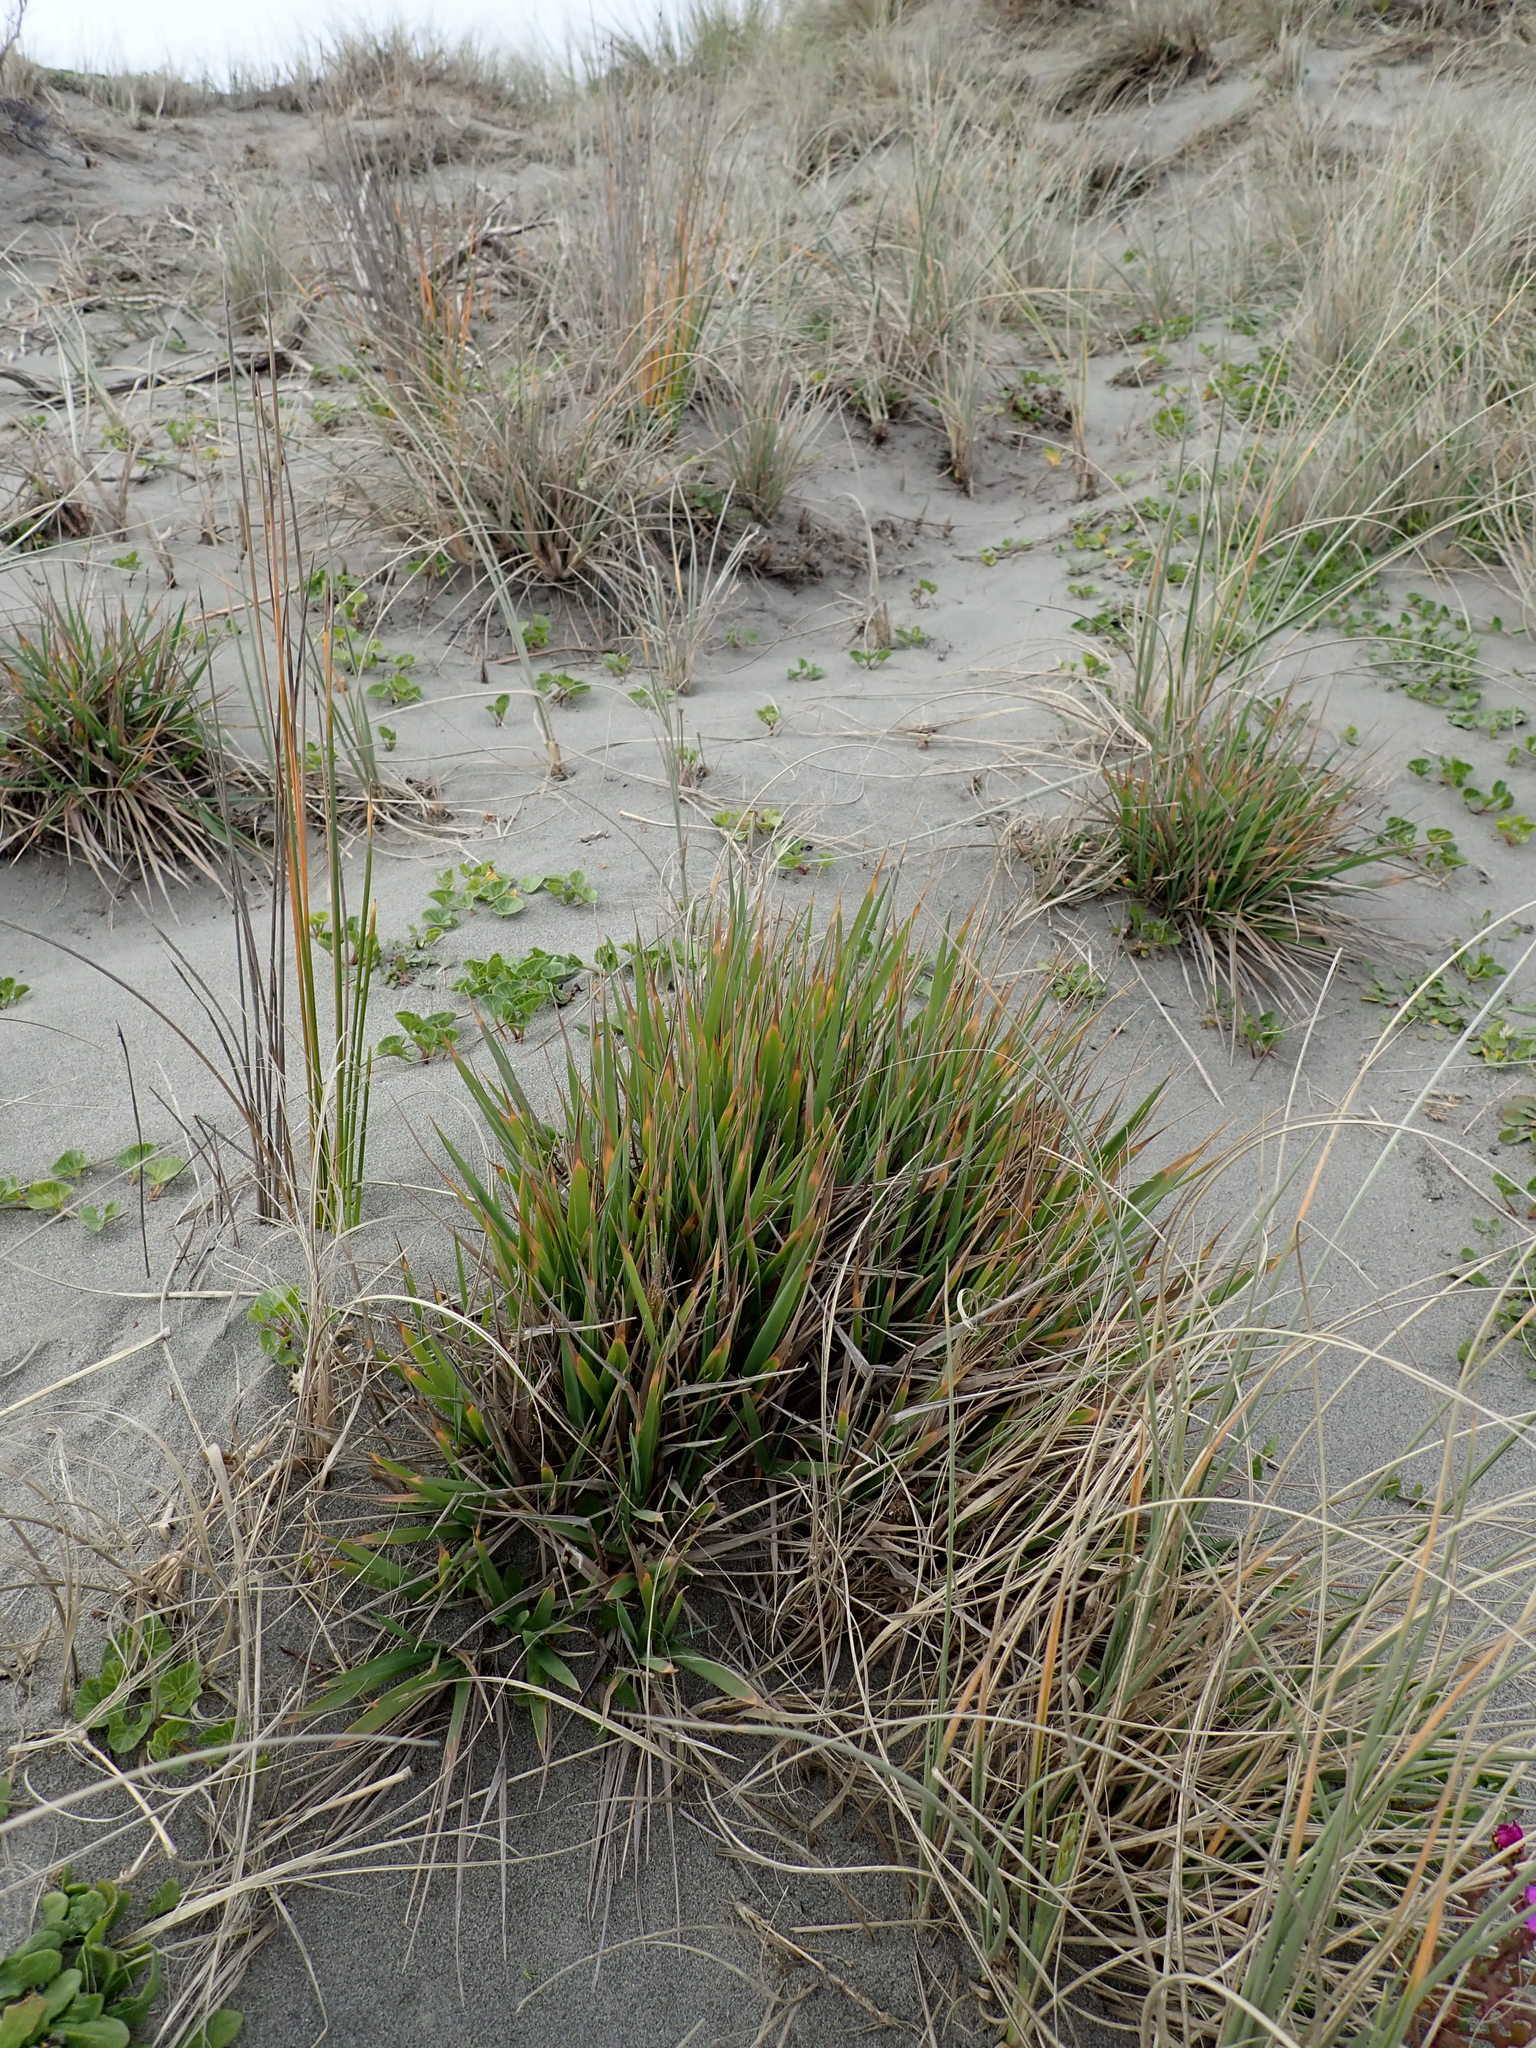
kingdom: Plantae
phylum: Tracheophyta
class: Liliopsida
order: Poales
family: Poaceae
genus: Lachnagrostis
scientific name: Lachnagrostis billardierei
